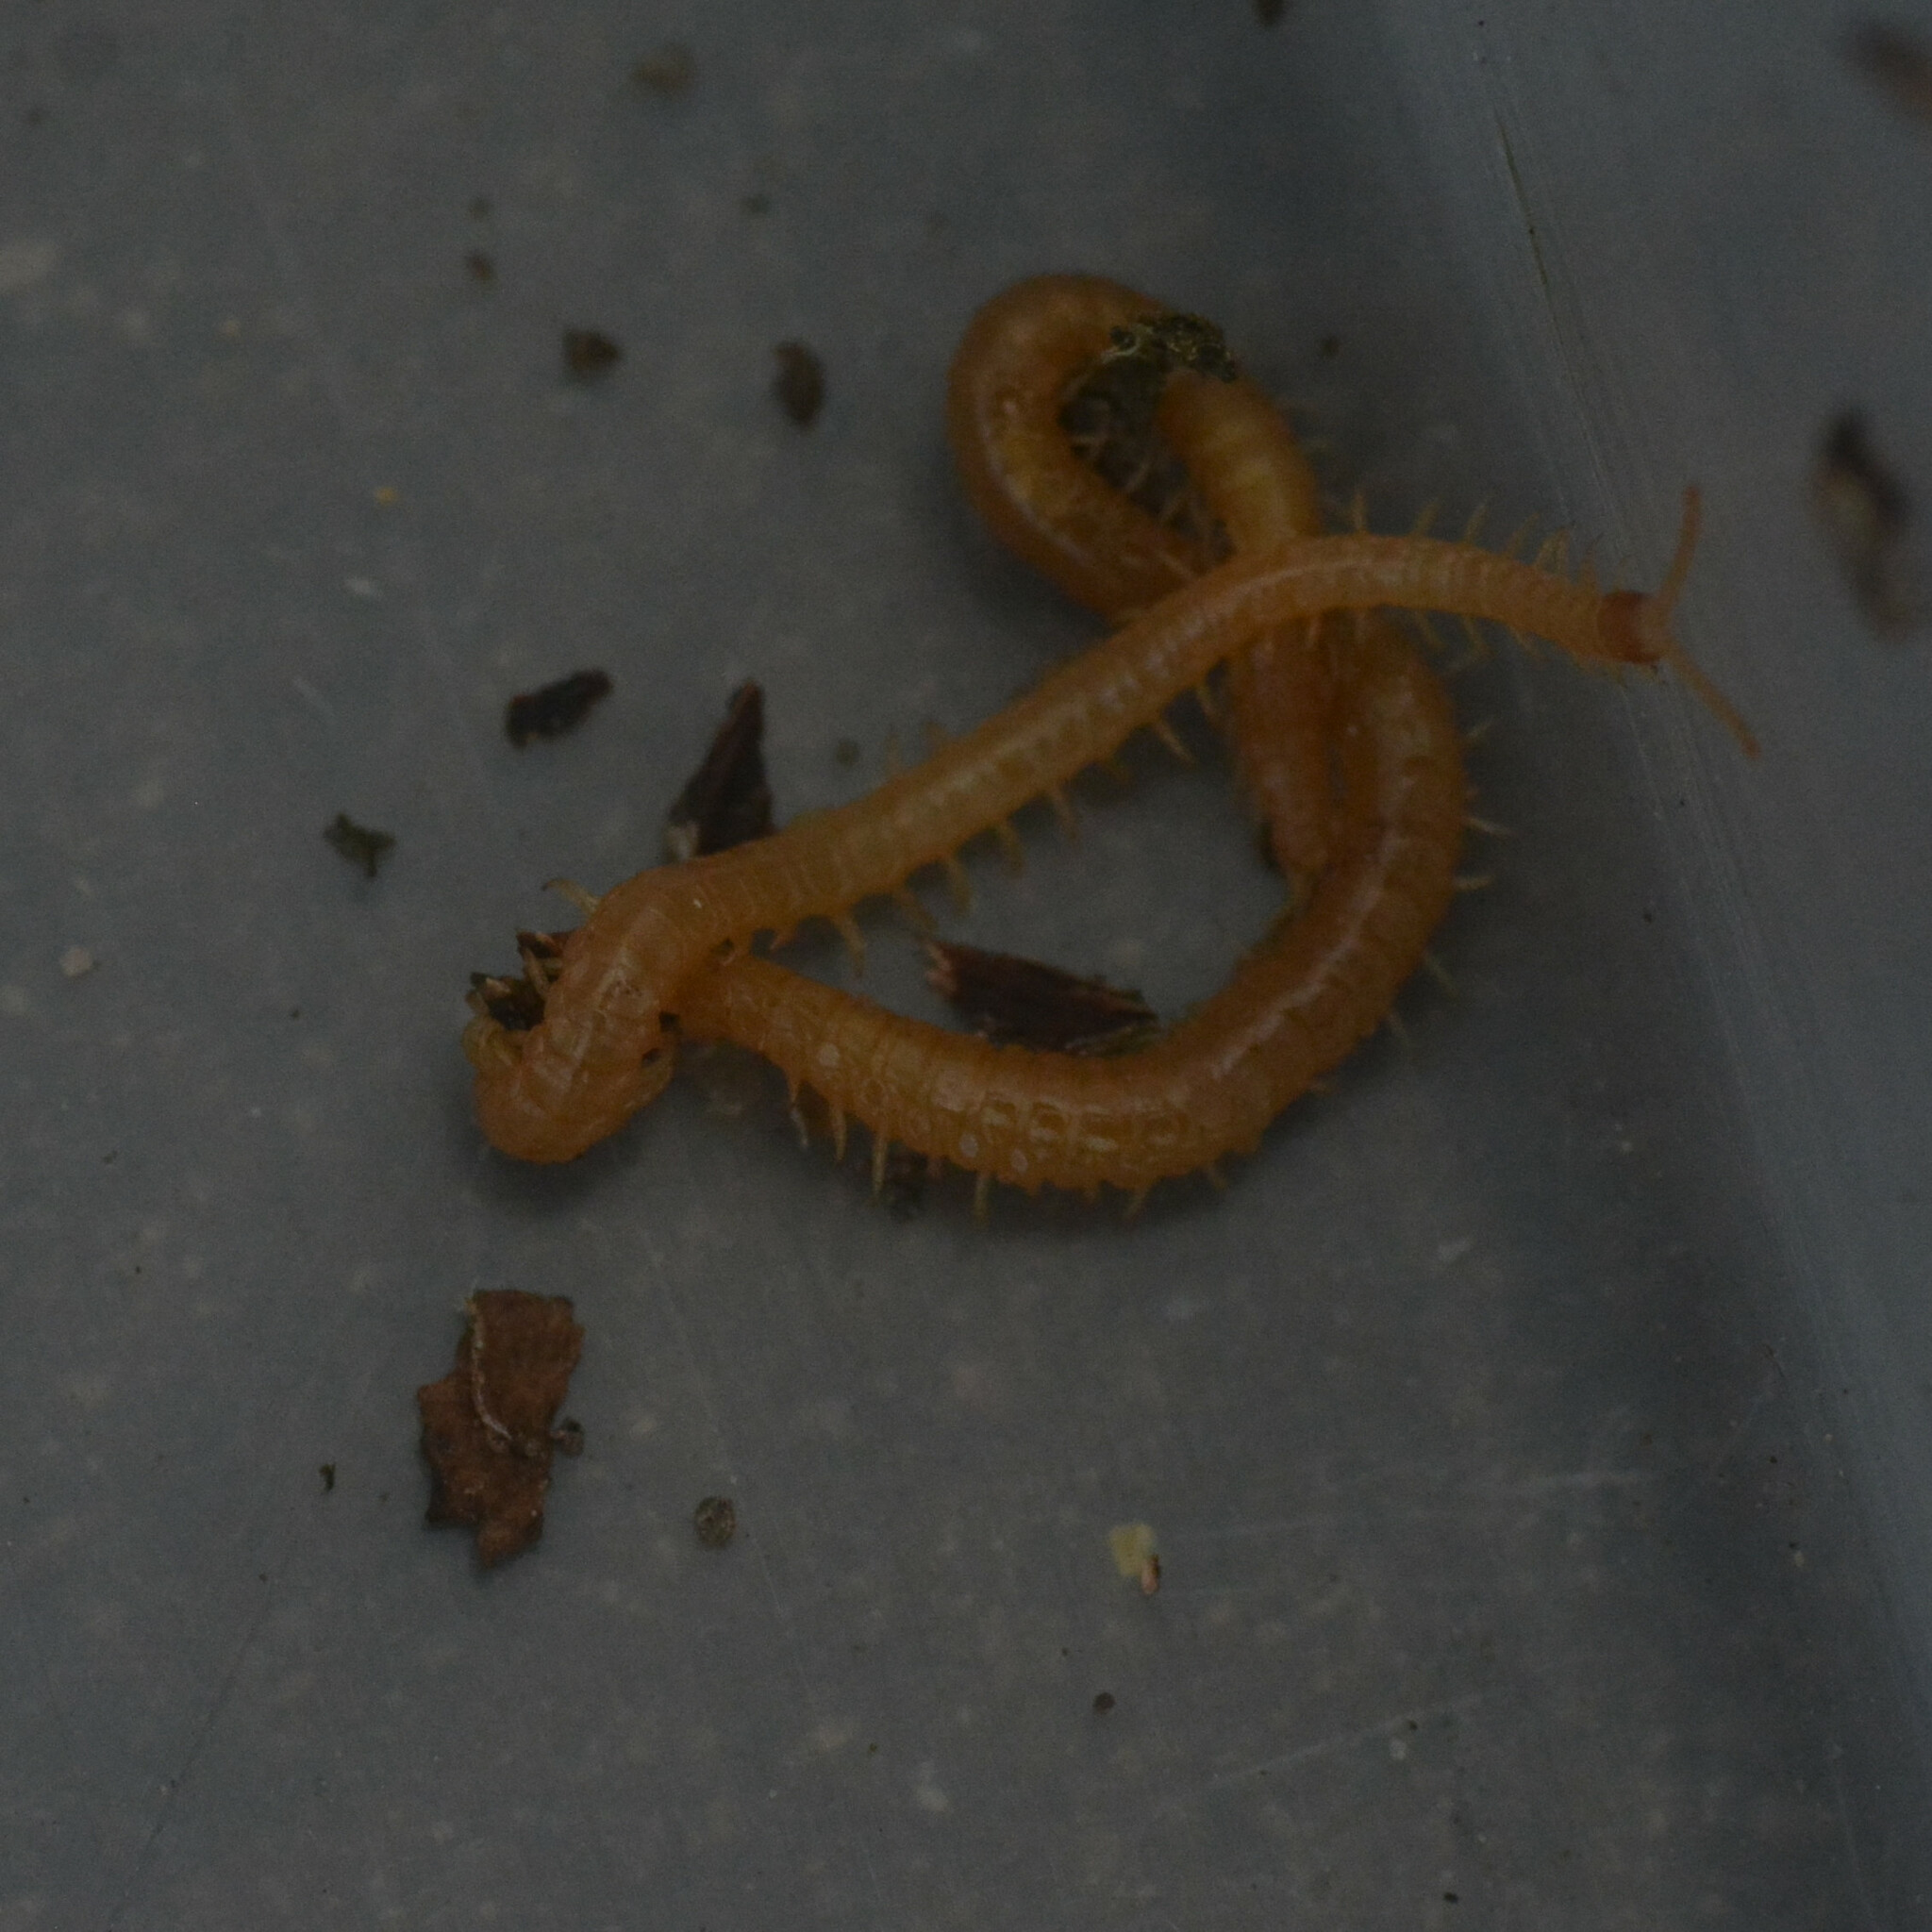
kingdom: Animalia
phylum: Arthropoda
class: Chilopoda
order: Geophilomorpha
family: Himantariidae
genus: Stigmatogaster
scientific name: Stigmatogaster subterranea
